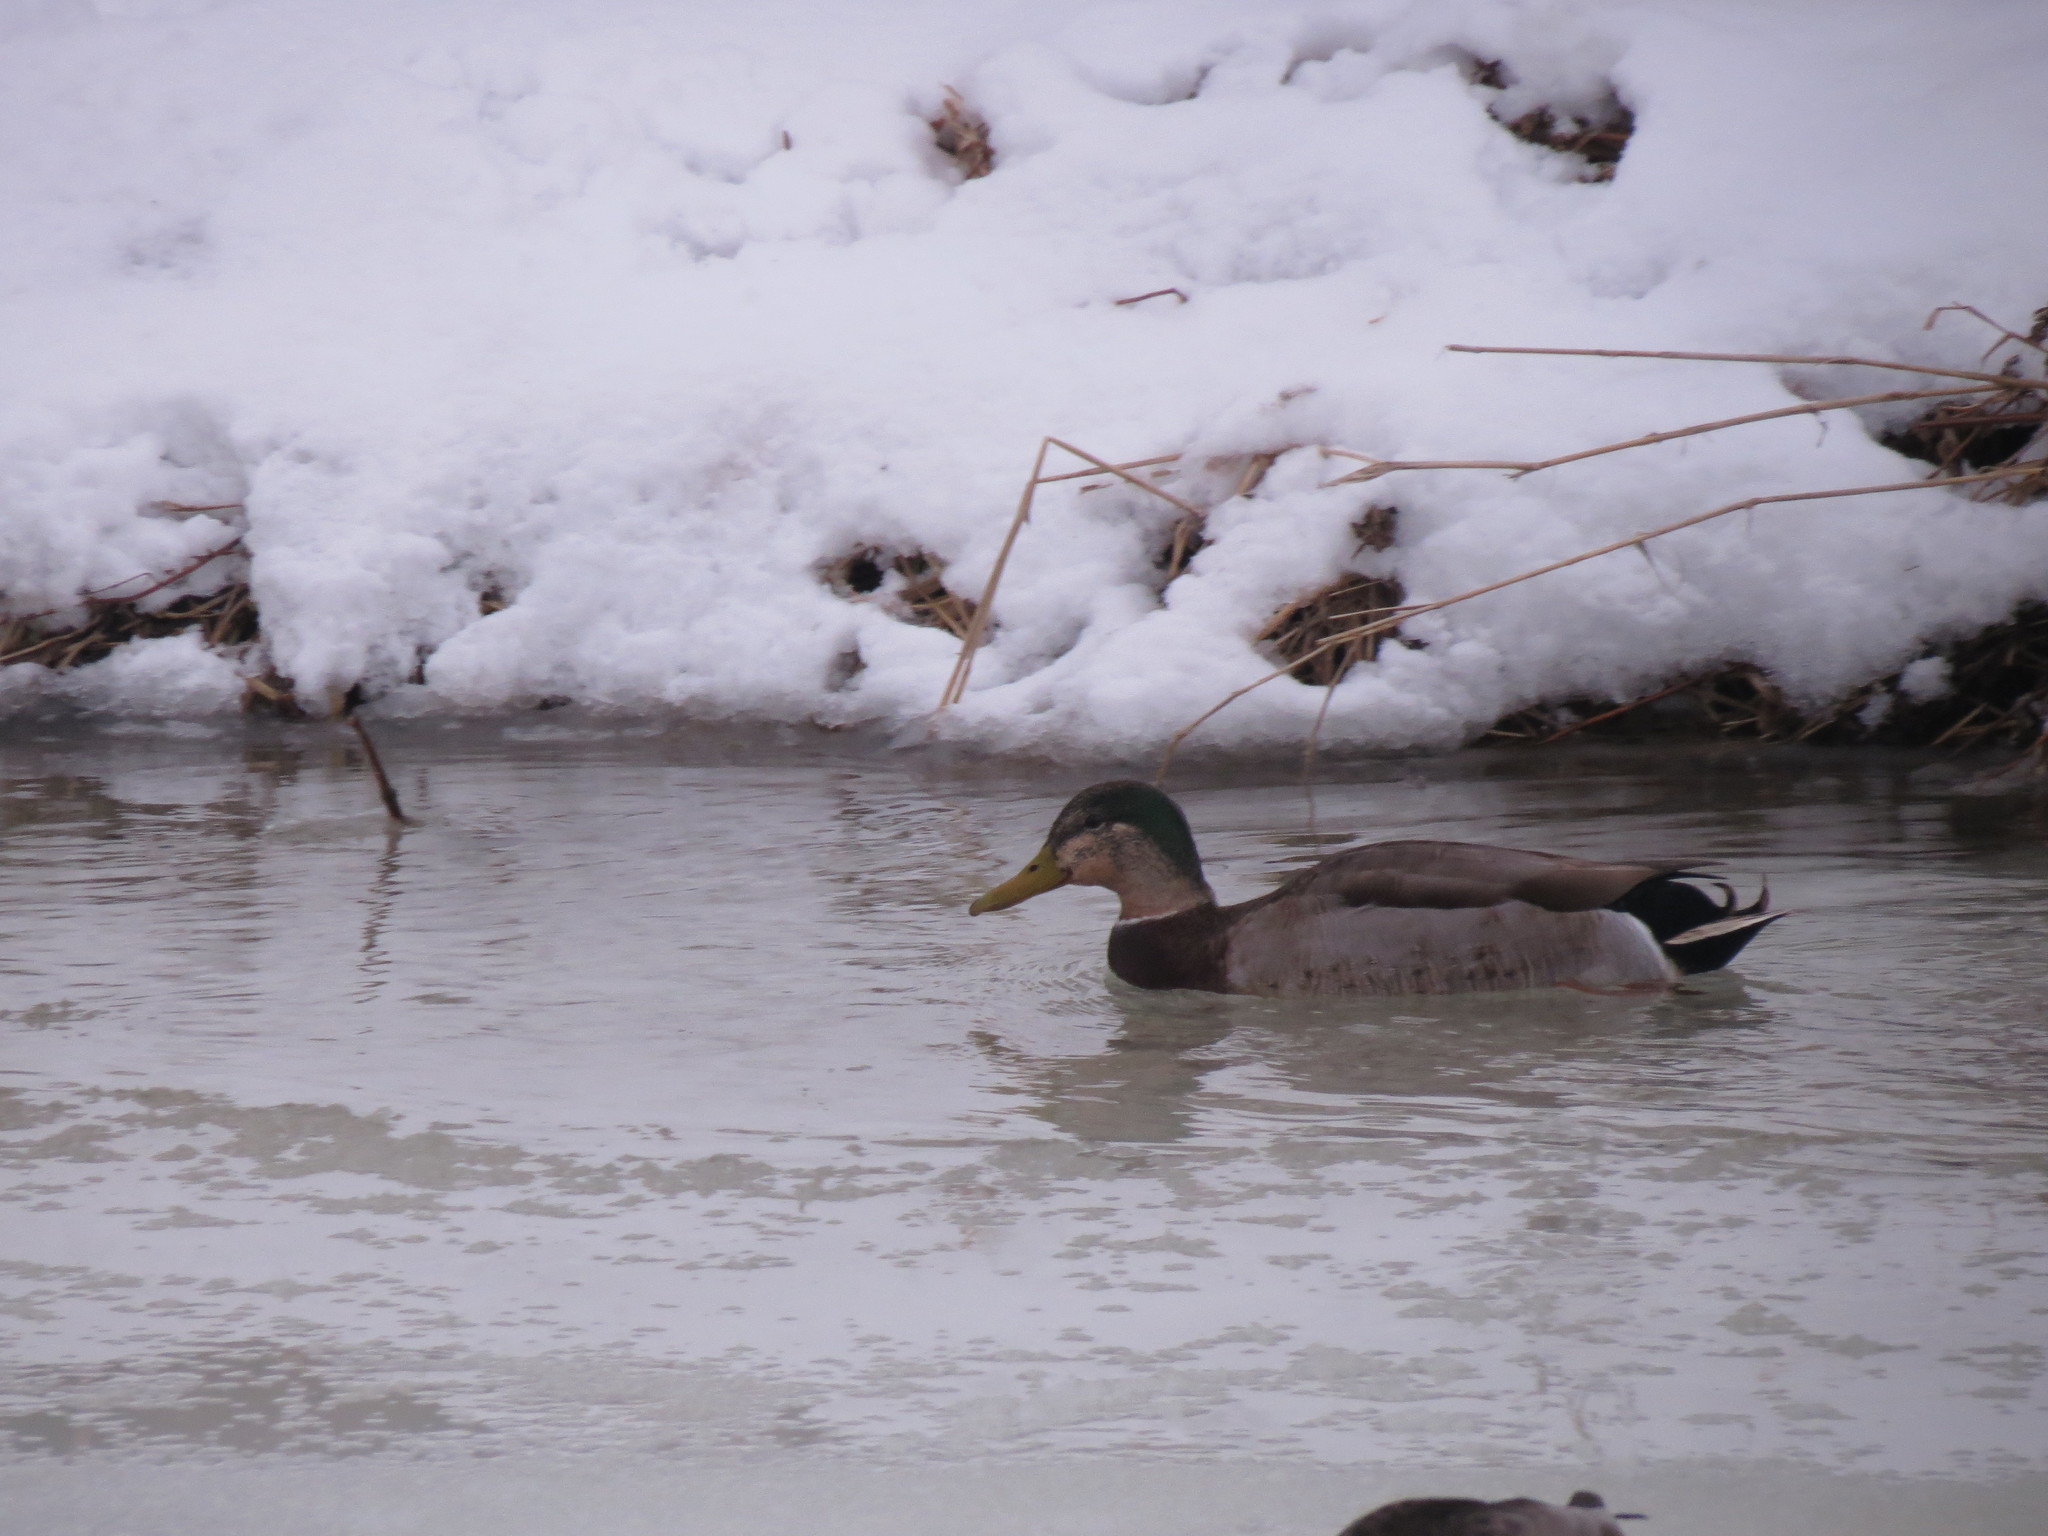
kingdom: Animalia
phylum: Chordata
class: Aves
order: Anseriformes
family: Anatidae
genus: Anas
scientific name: Anas platyrhynchos
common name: Mallard
